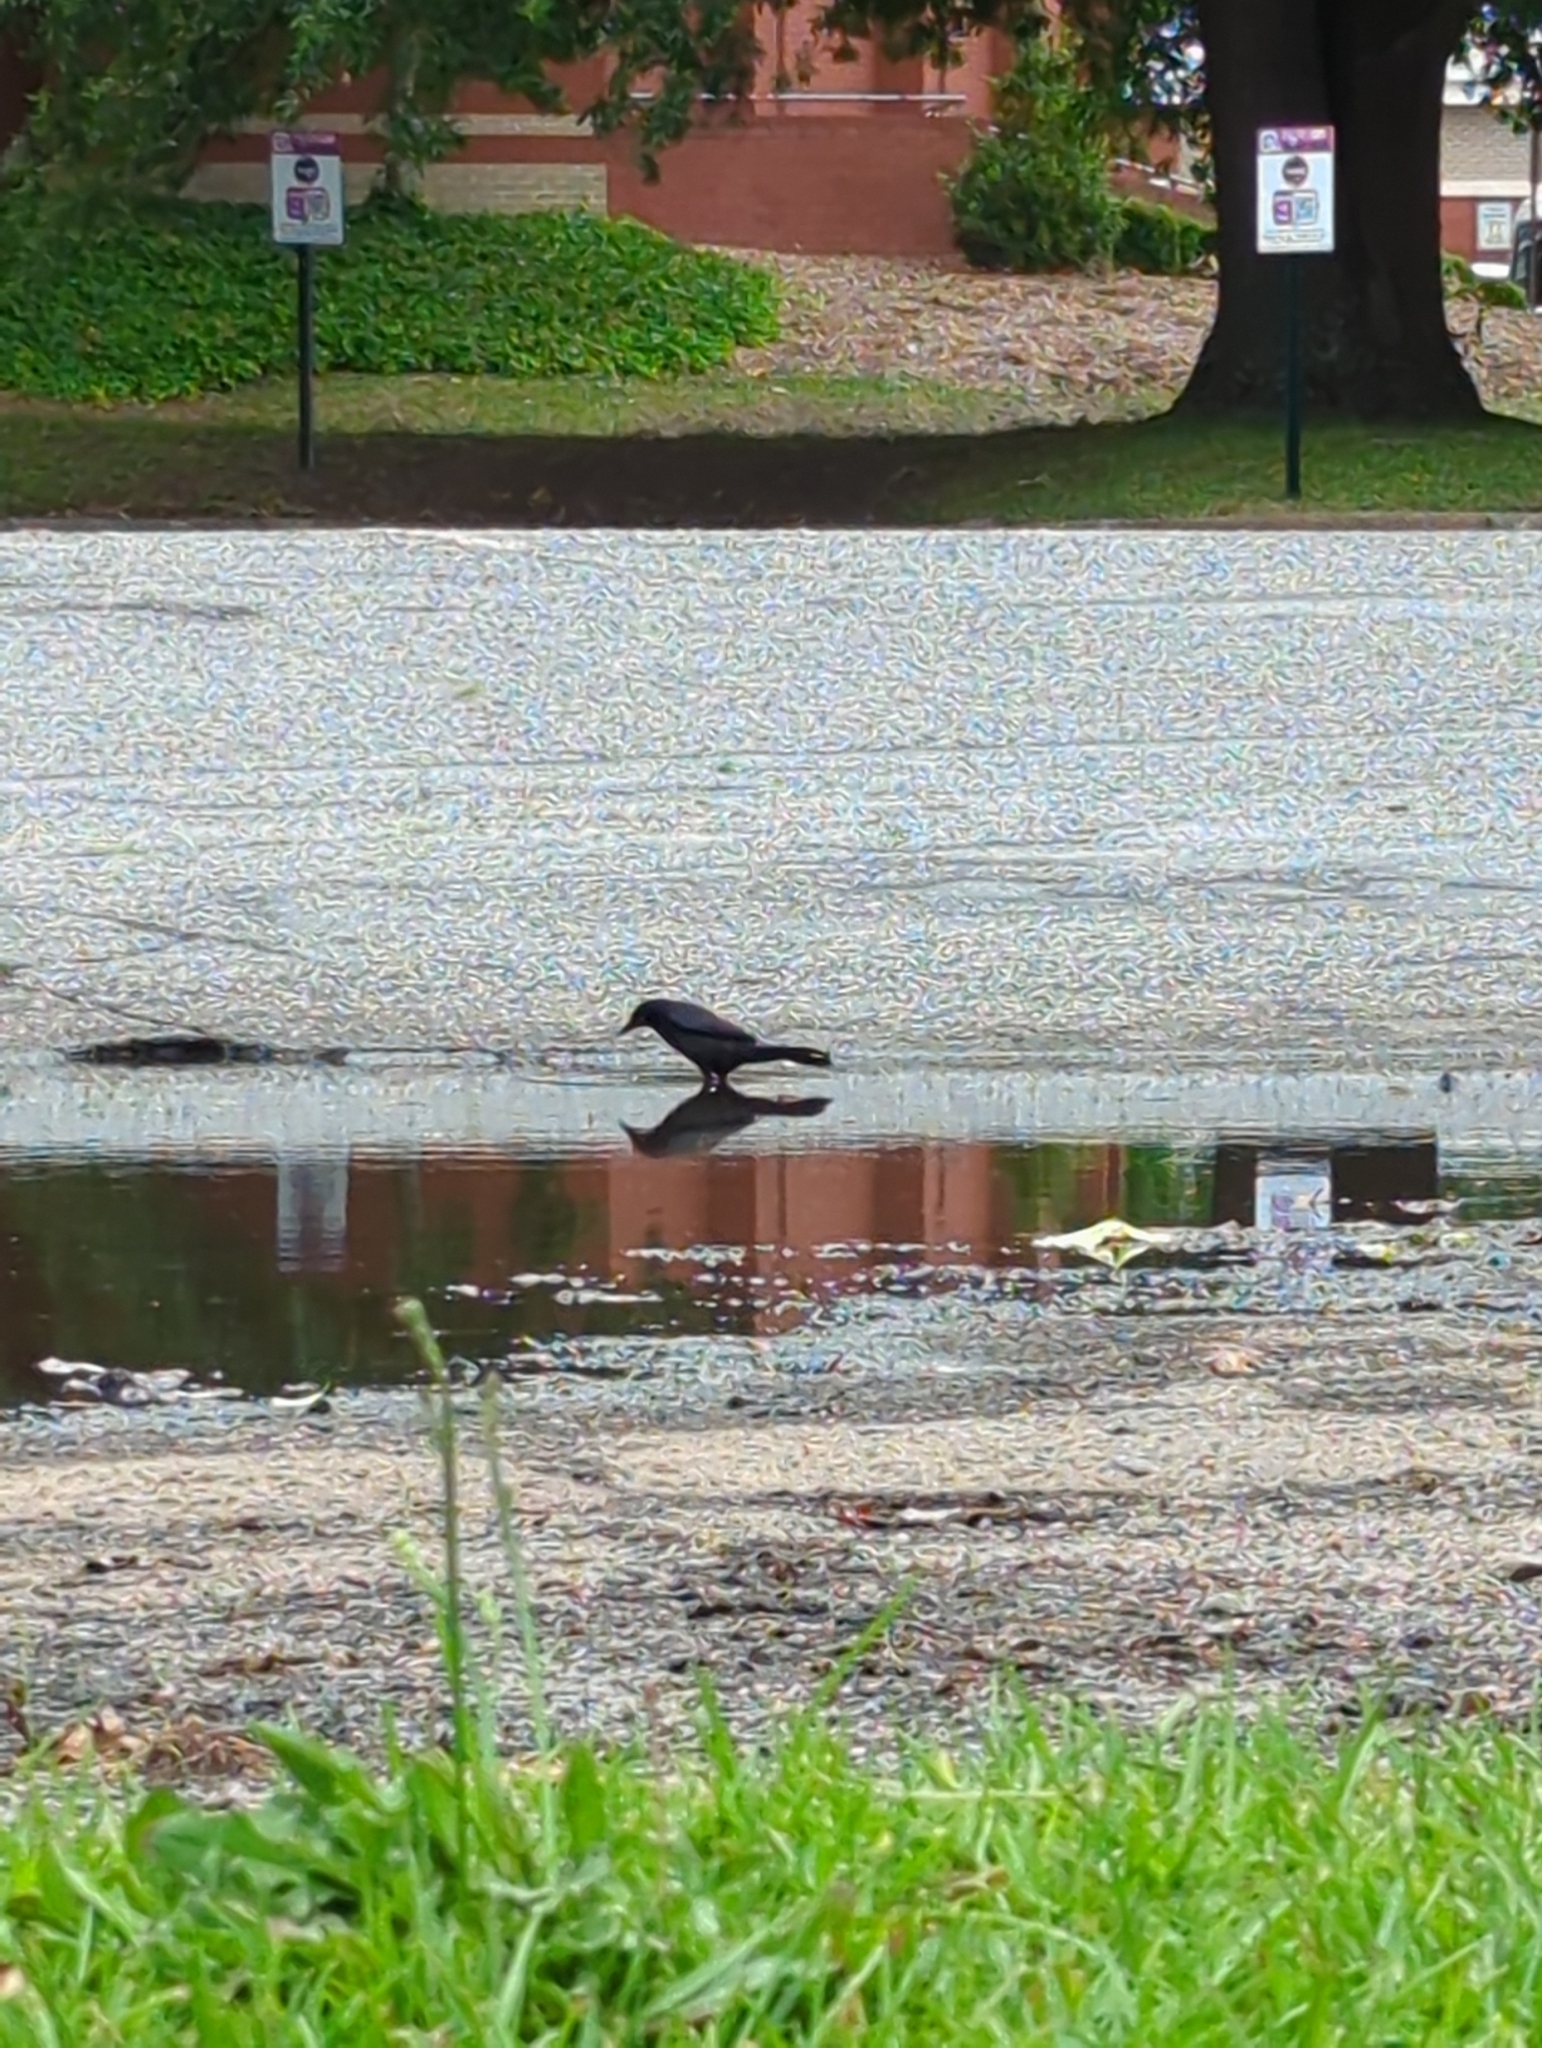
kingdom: Animalia
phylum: Chordata
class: Aves
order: Passeriformes
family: Icteridae
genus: Quiscalus
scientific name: Quiscalus quiscula
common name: Common grackle
